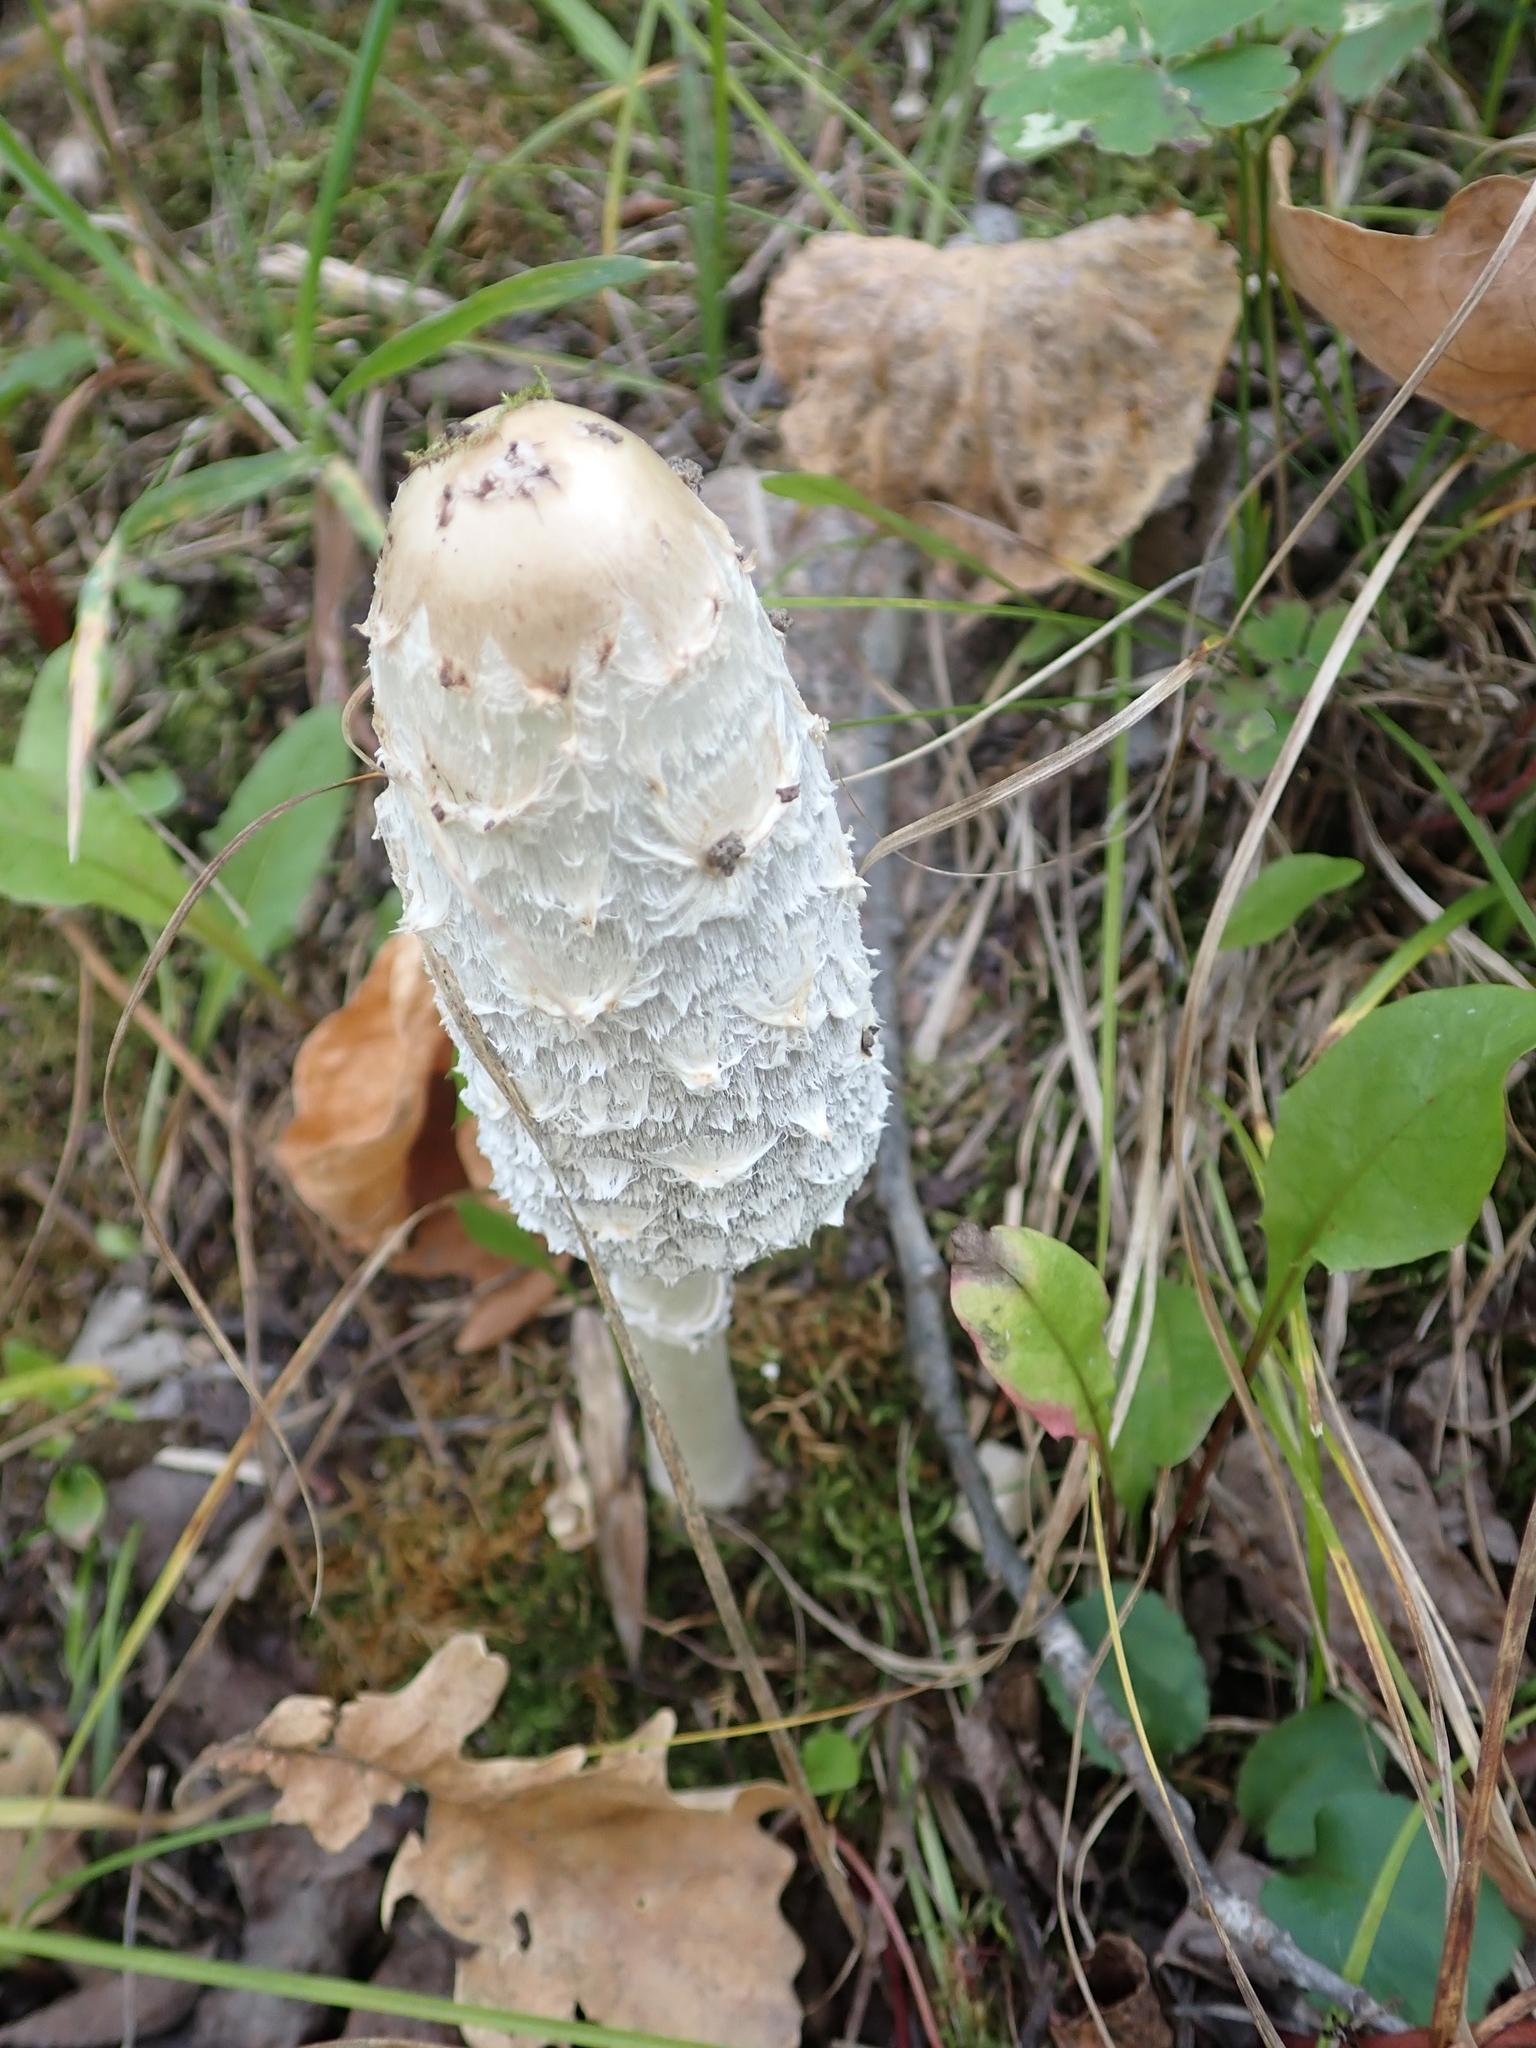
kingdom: Fungi
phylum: Basidiomycota
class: Agaricomycetes
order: Agaricales
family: Agaricaceae
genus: Coprinus
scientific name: Coprinus comatus
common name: Lawyer's wig
